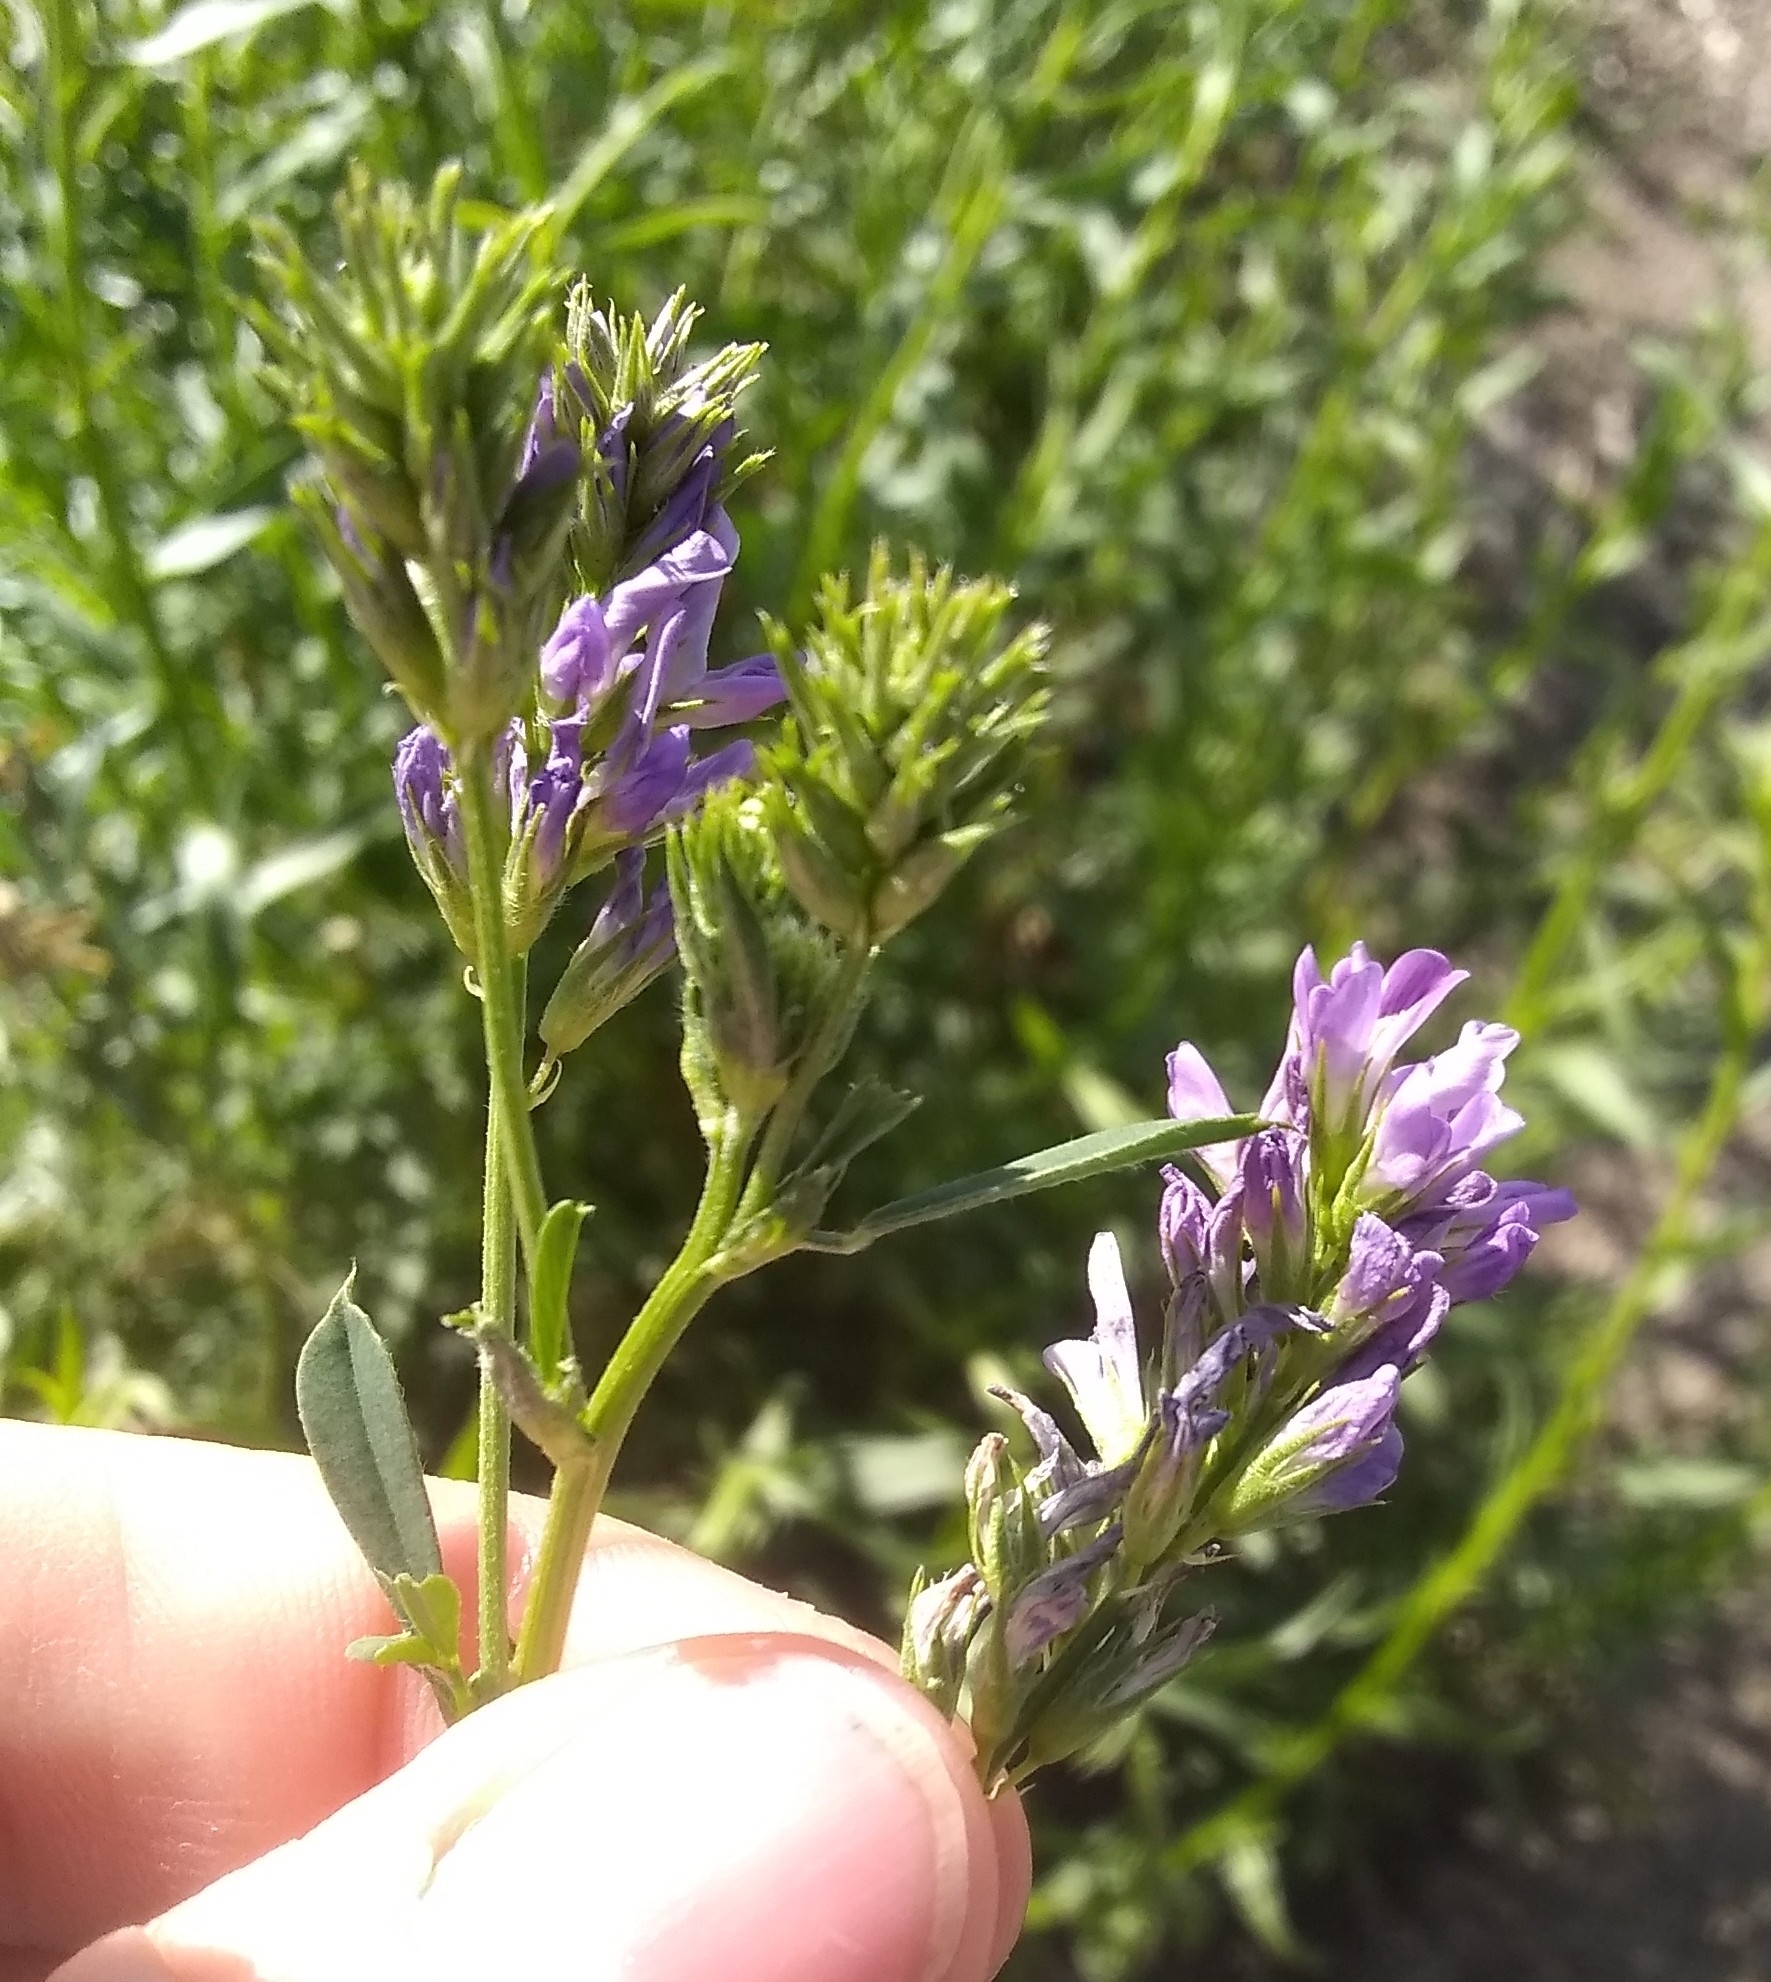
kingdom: Plantae
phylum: Tracheophyta
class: Magnoliopsida
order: Fabales
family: Fabaceae
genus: Medicago
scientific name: Medicago sativa
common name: Alfalfa
